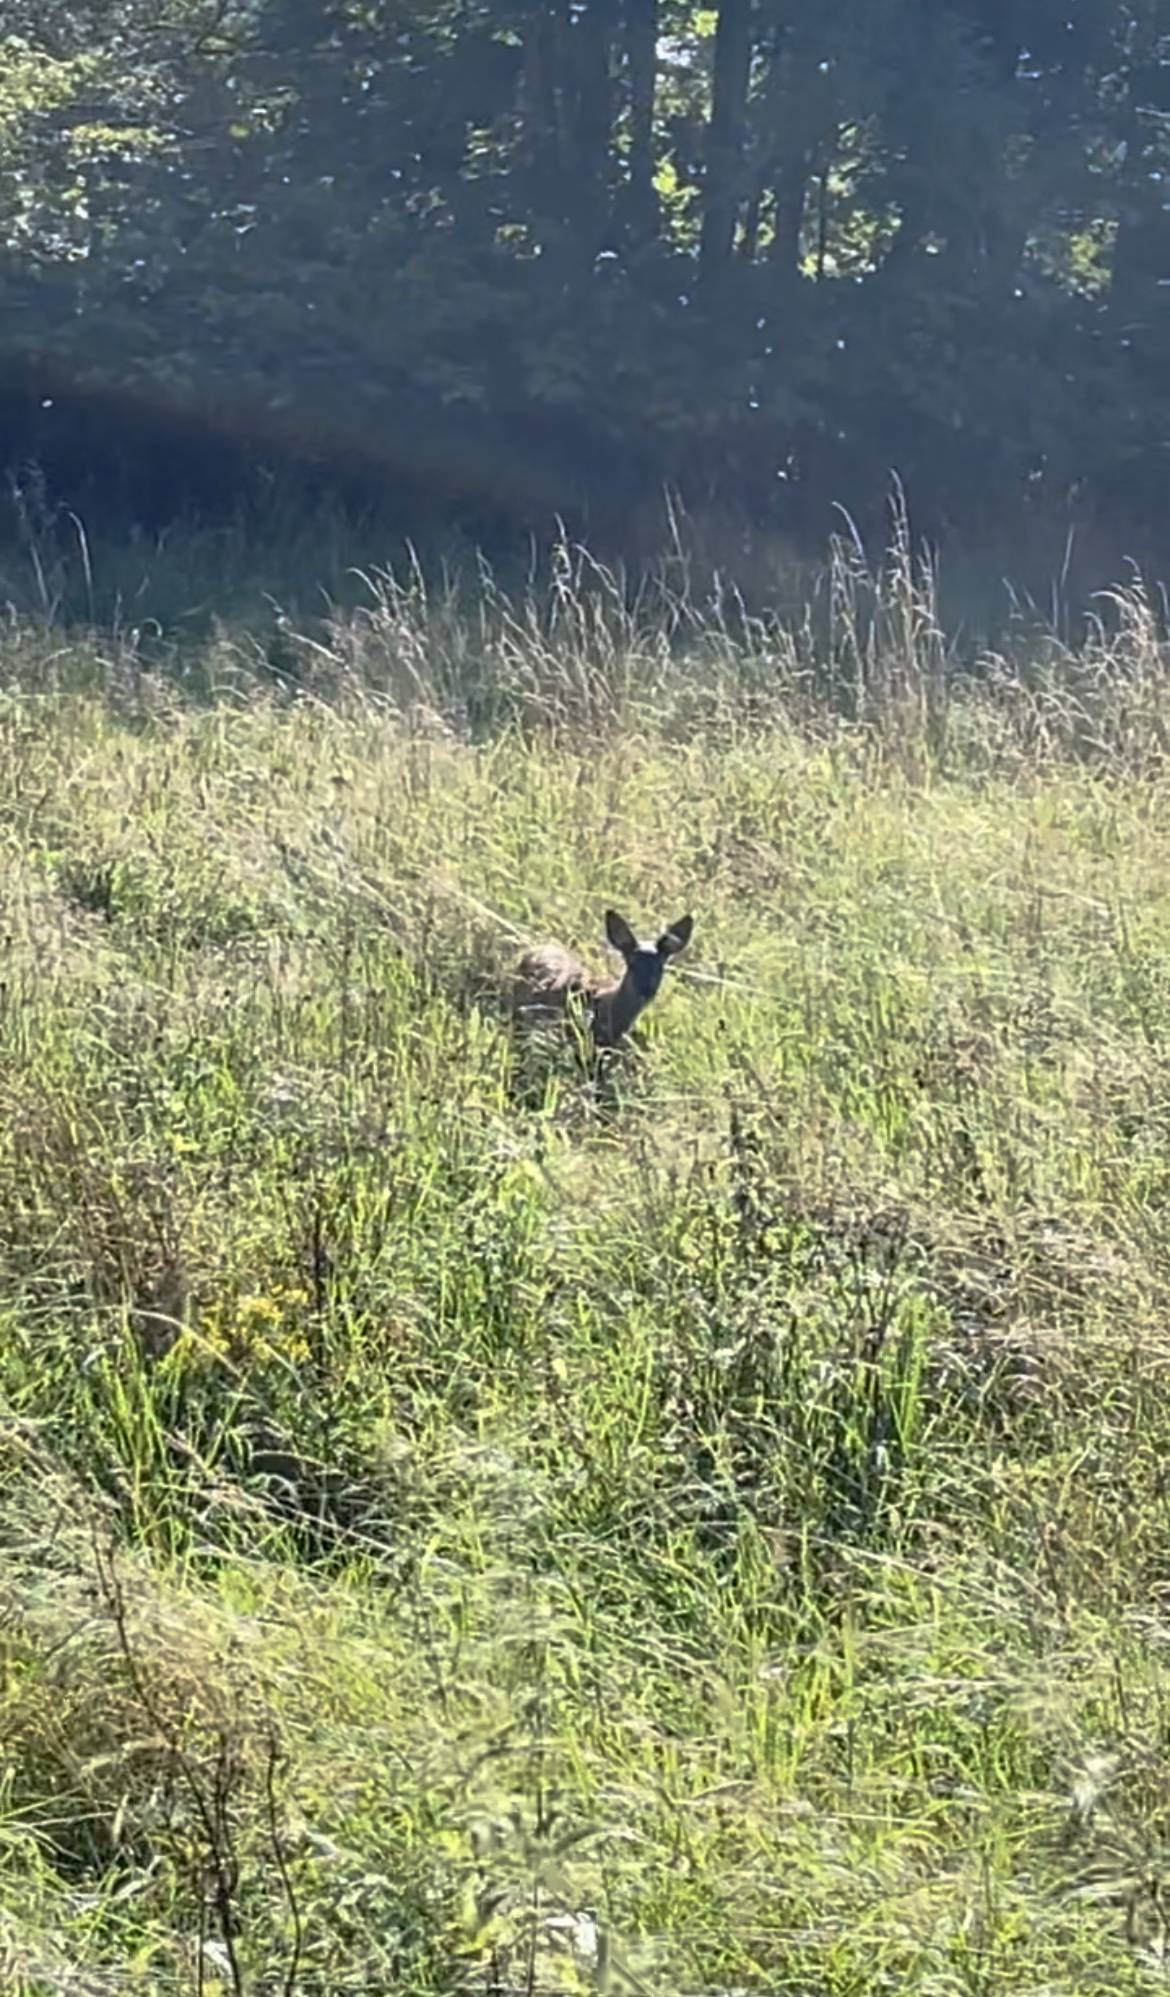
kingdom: Animalia
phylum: Chordata
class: Mammalia
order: Artiodactyla
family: Cervidae
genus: Capreolus
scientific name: Capreolus capreolus
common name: Western roe deer
